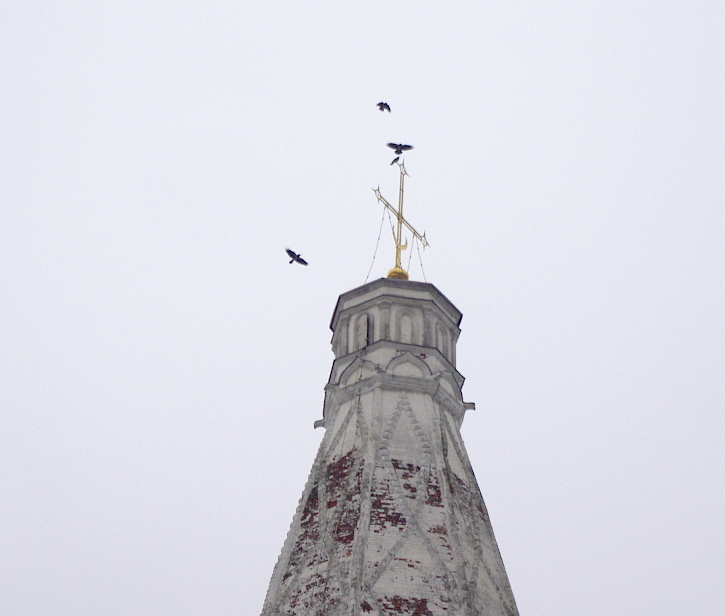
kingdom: Animalia
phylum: Chordata
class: Aves
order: Passeriformes
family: Corvidae
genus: Corvus
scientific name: Corvus cornix
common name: Hooded crow
